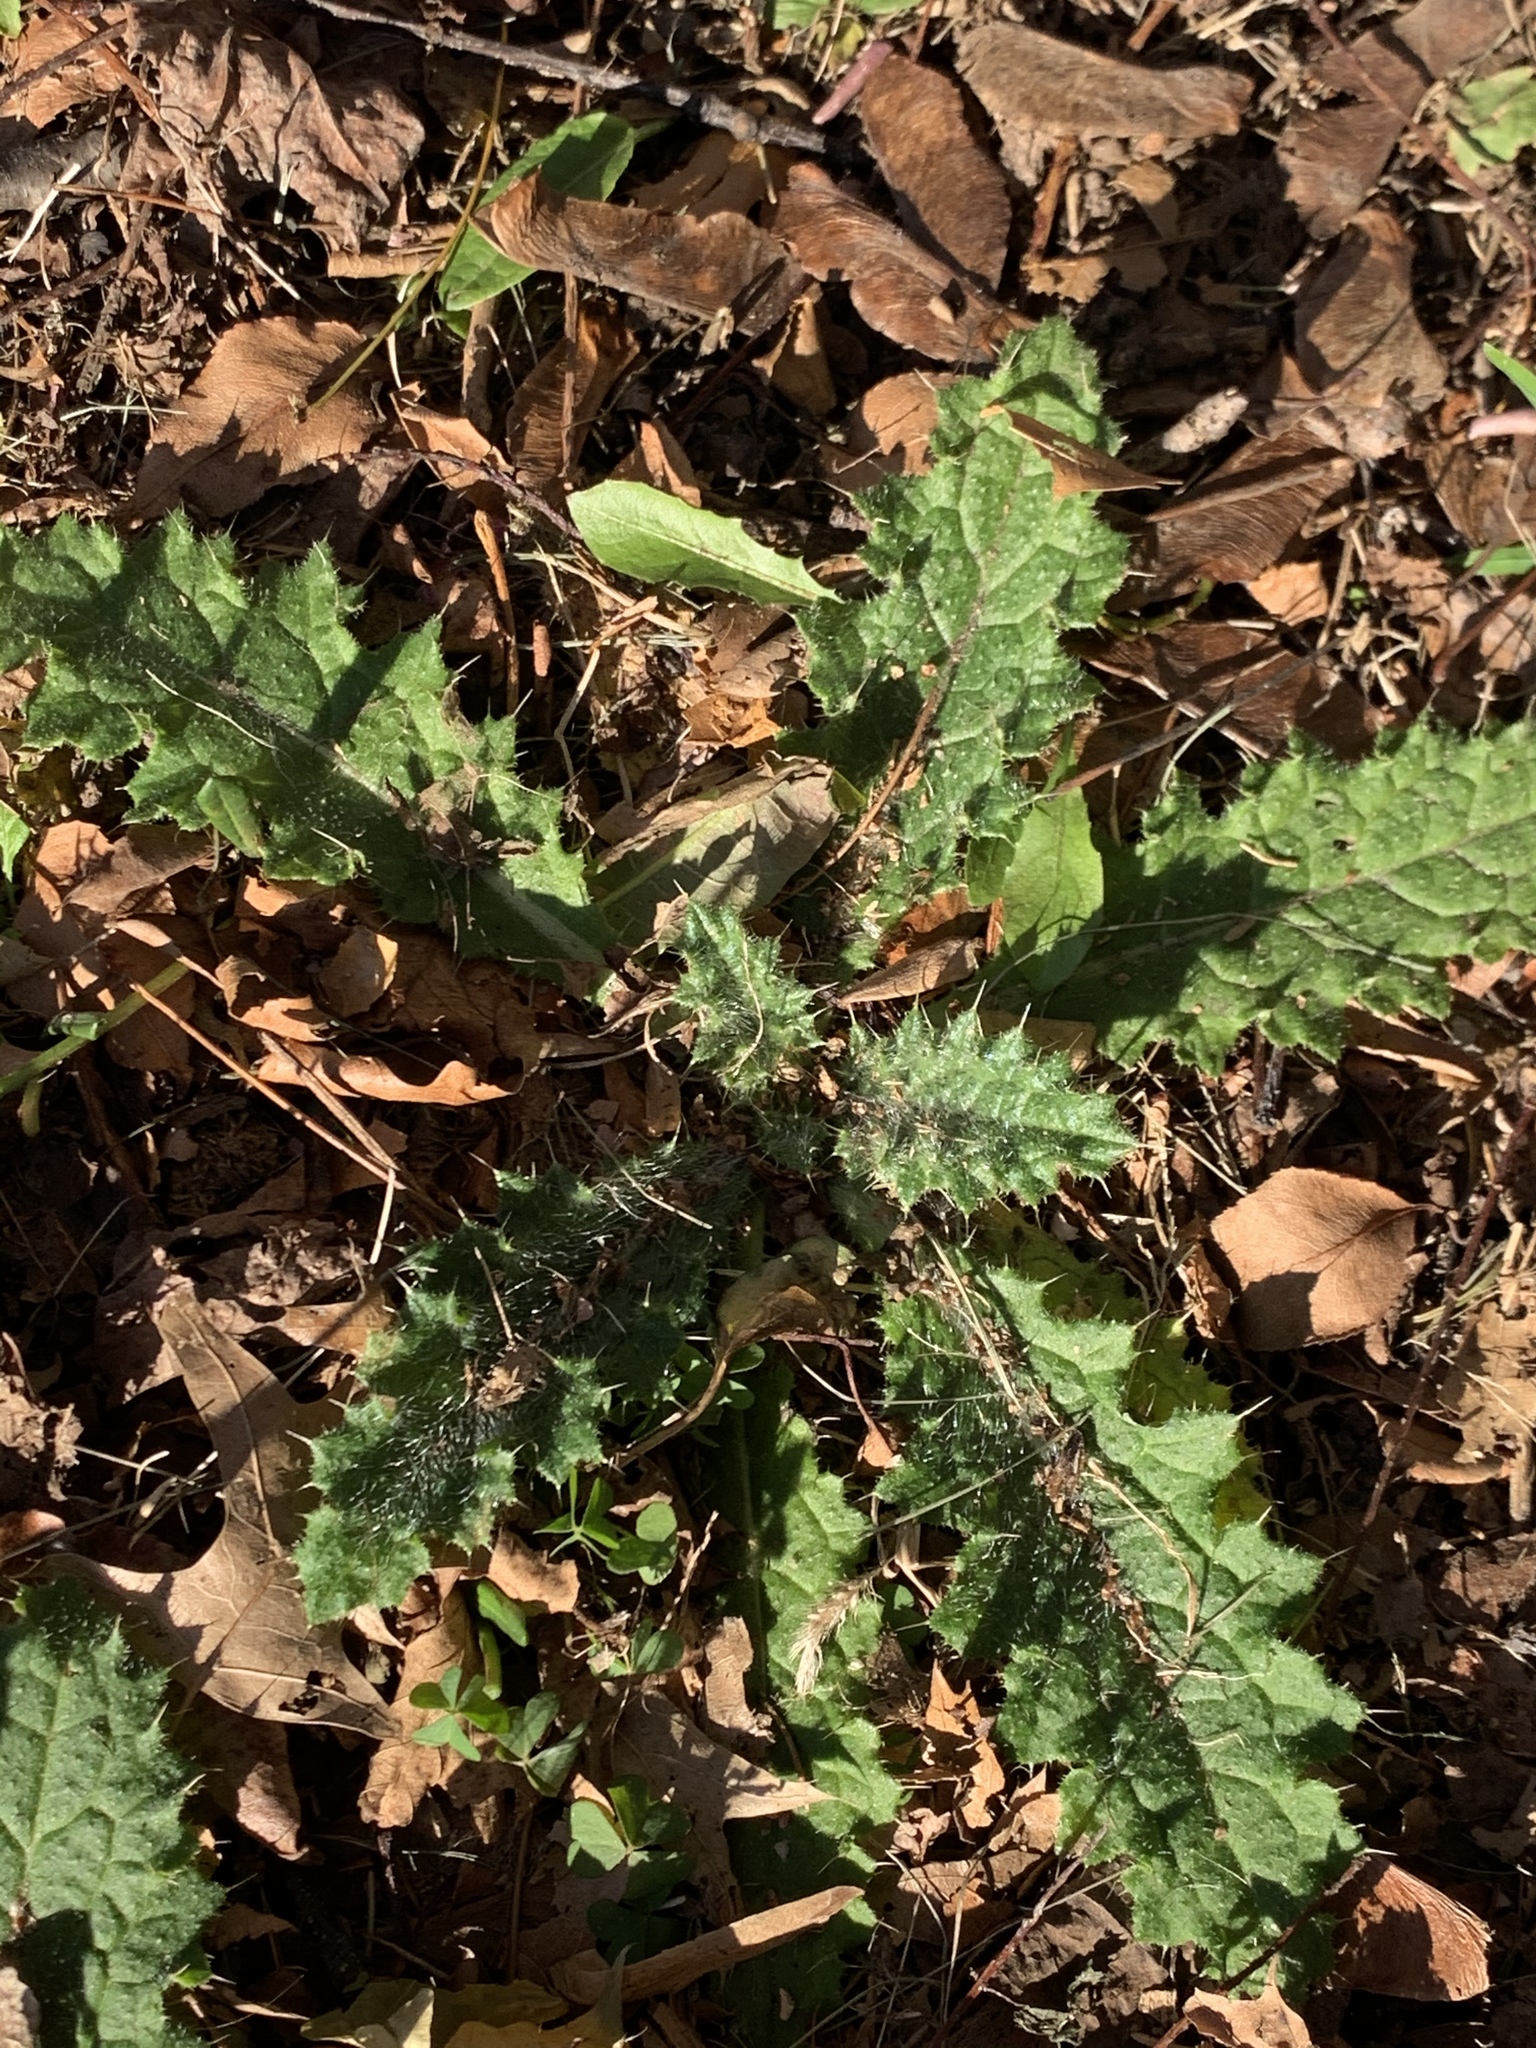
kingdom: Plantae
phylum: Tracheophyta
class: Magnoliopsida
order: Asterales
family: Asteraceae
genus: Cirsium
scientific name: Cirsium vulgare
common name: Bull thistle
